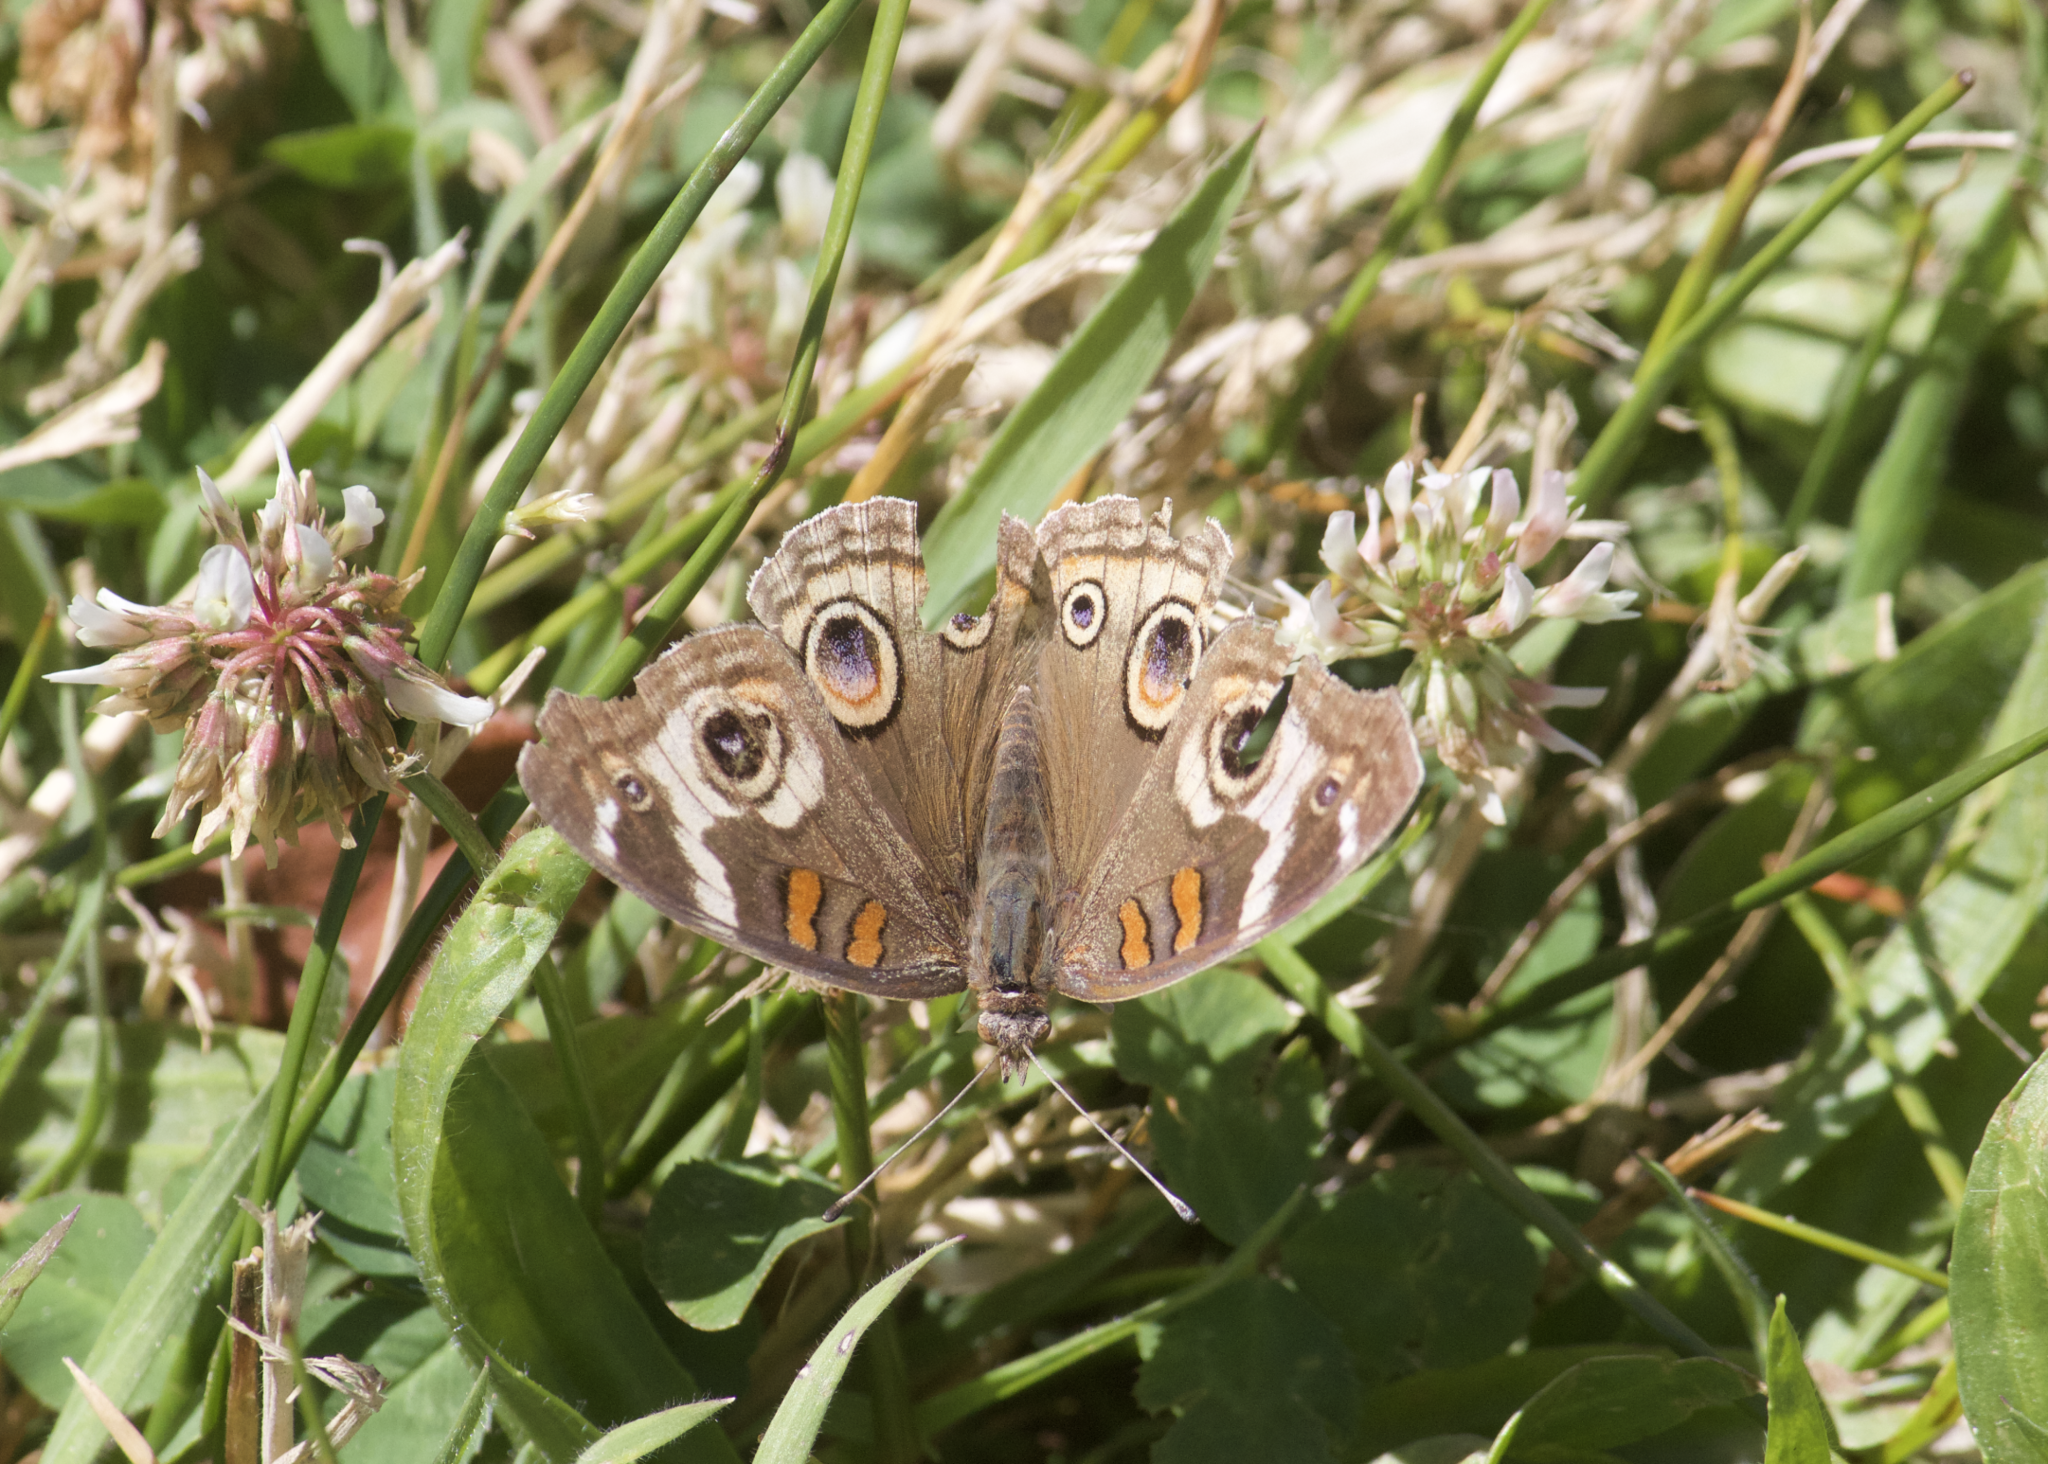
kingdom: Animalia
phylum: Arthropoda
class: Insecta
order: Lepidoptera
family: Nymphalidae
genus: Junonia
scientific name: Junonia grisea
